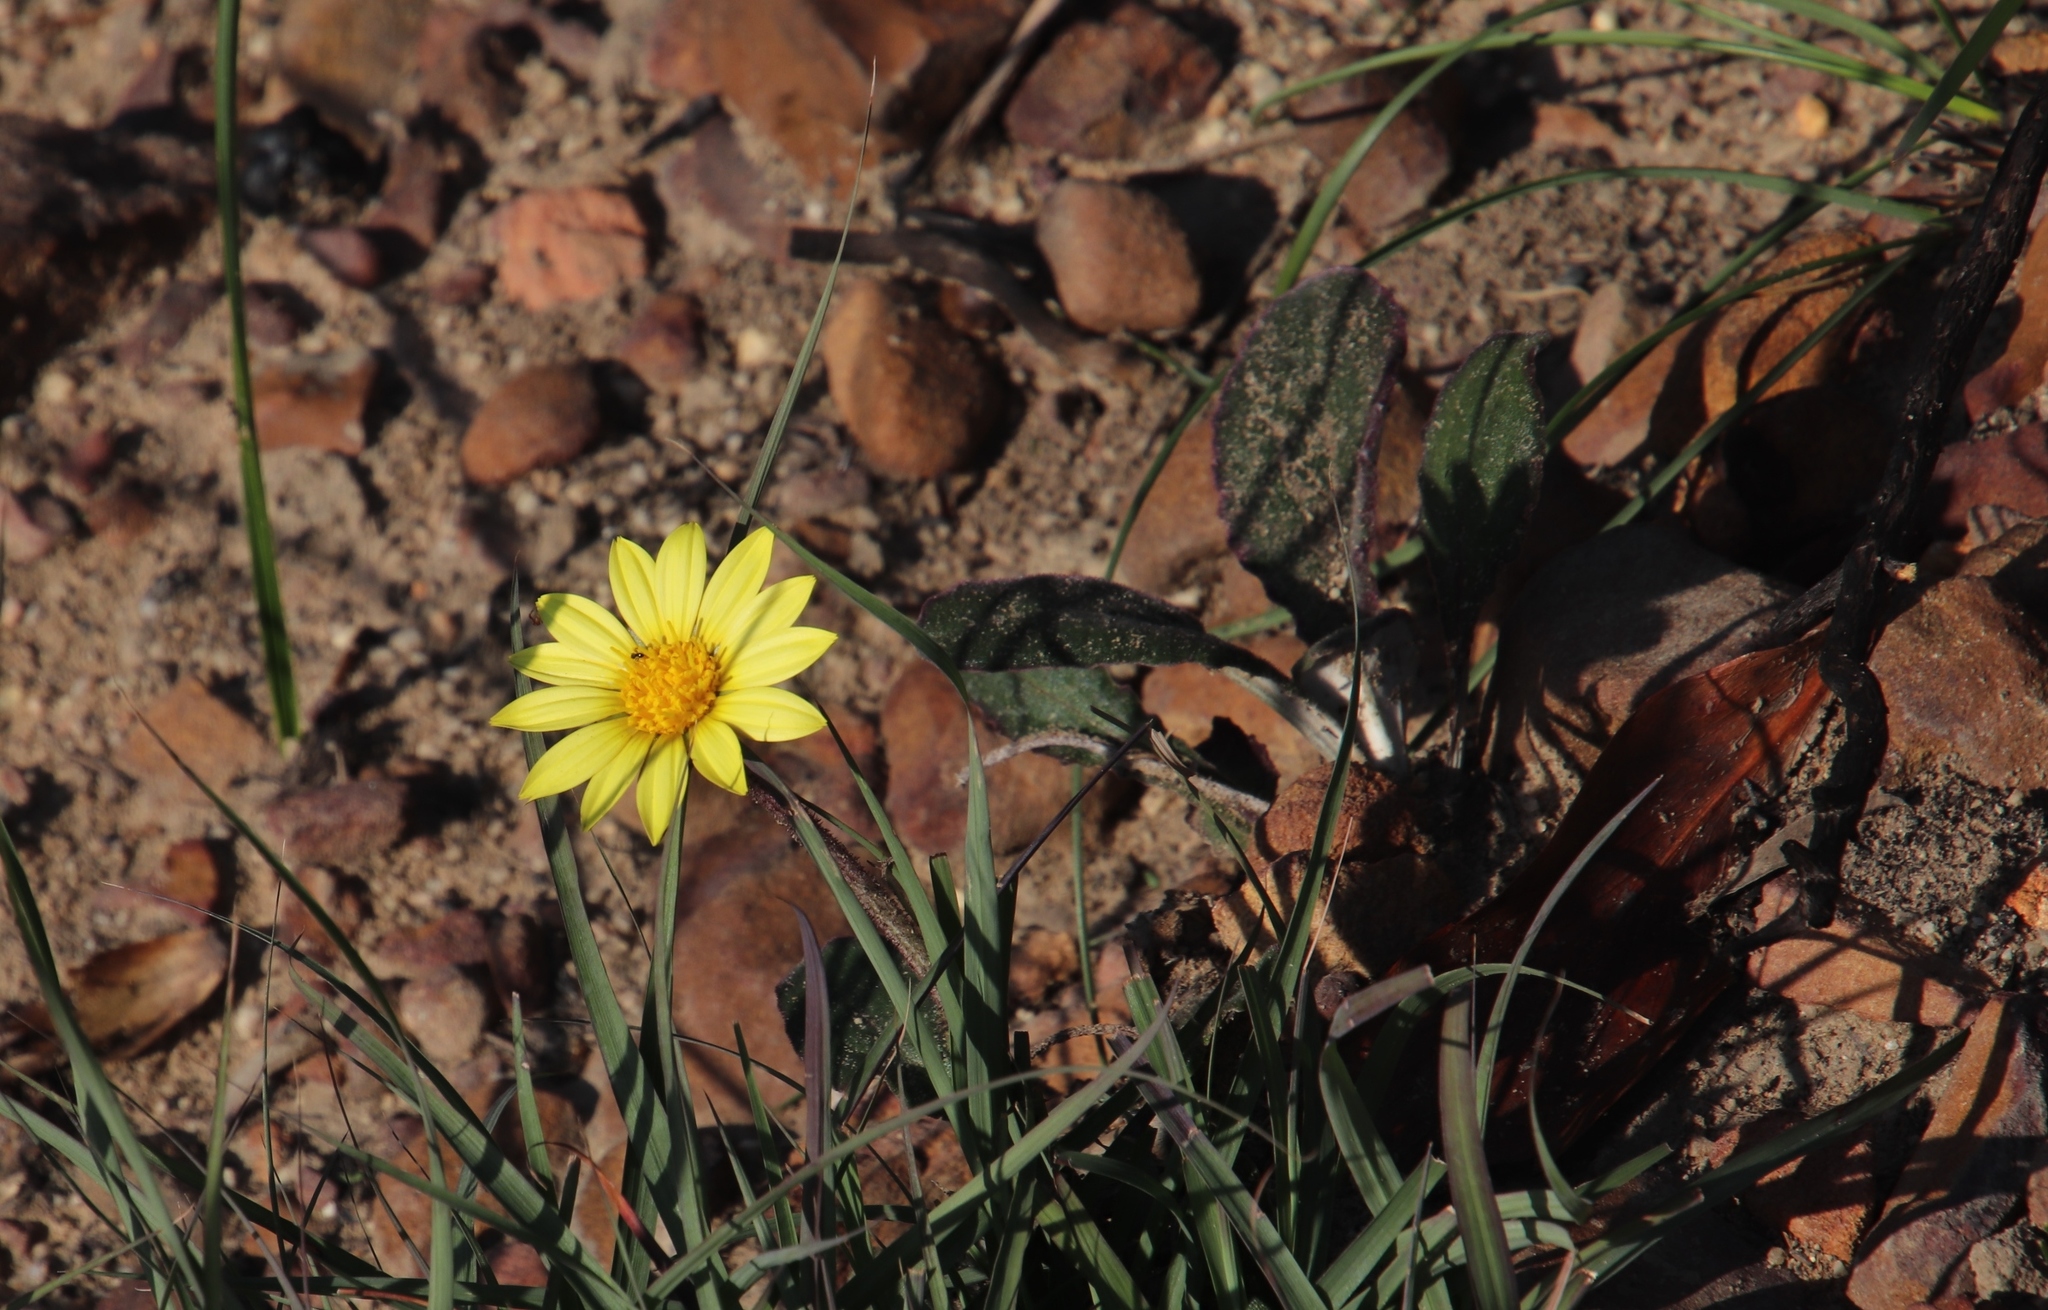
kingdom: Plantae
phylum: Tracheophyta
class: Magnoliopsida
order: Asterales
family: Asteraceae
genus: Haplocarpha
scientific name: Haplocarpha lanata
